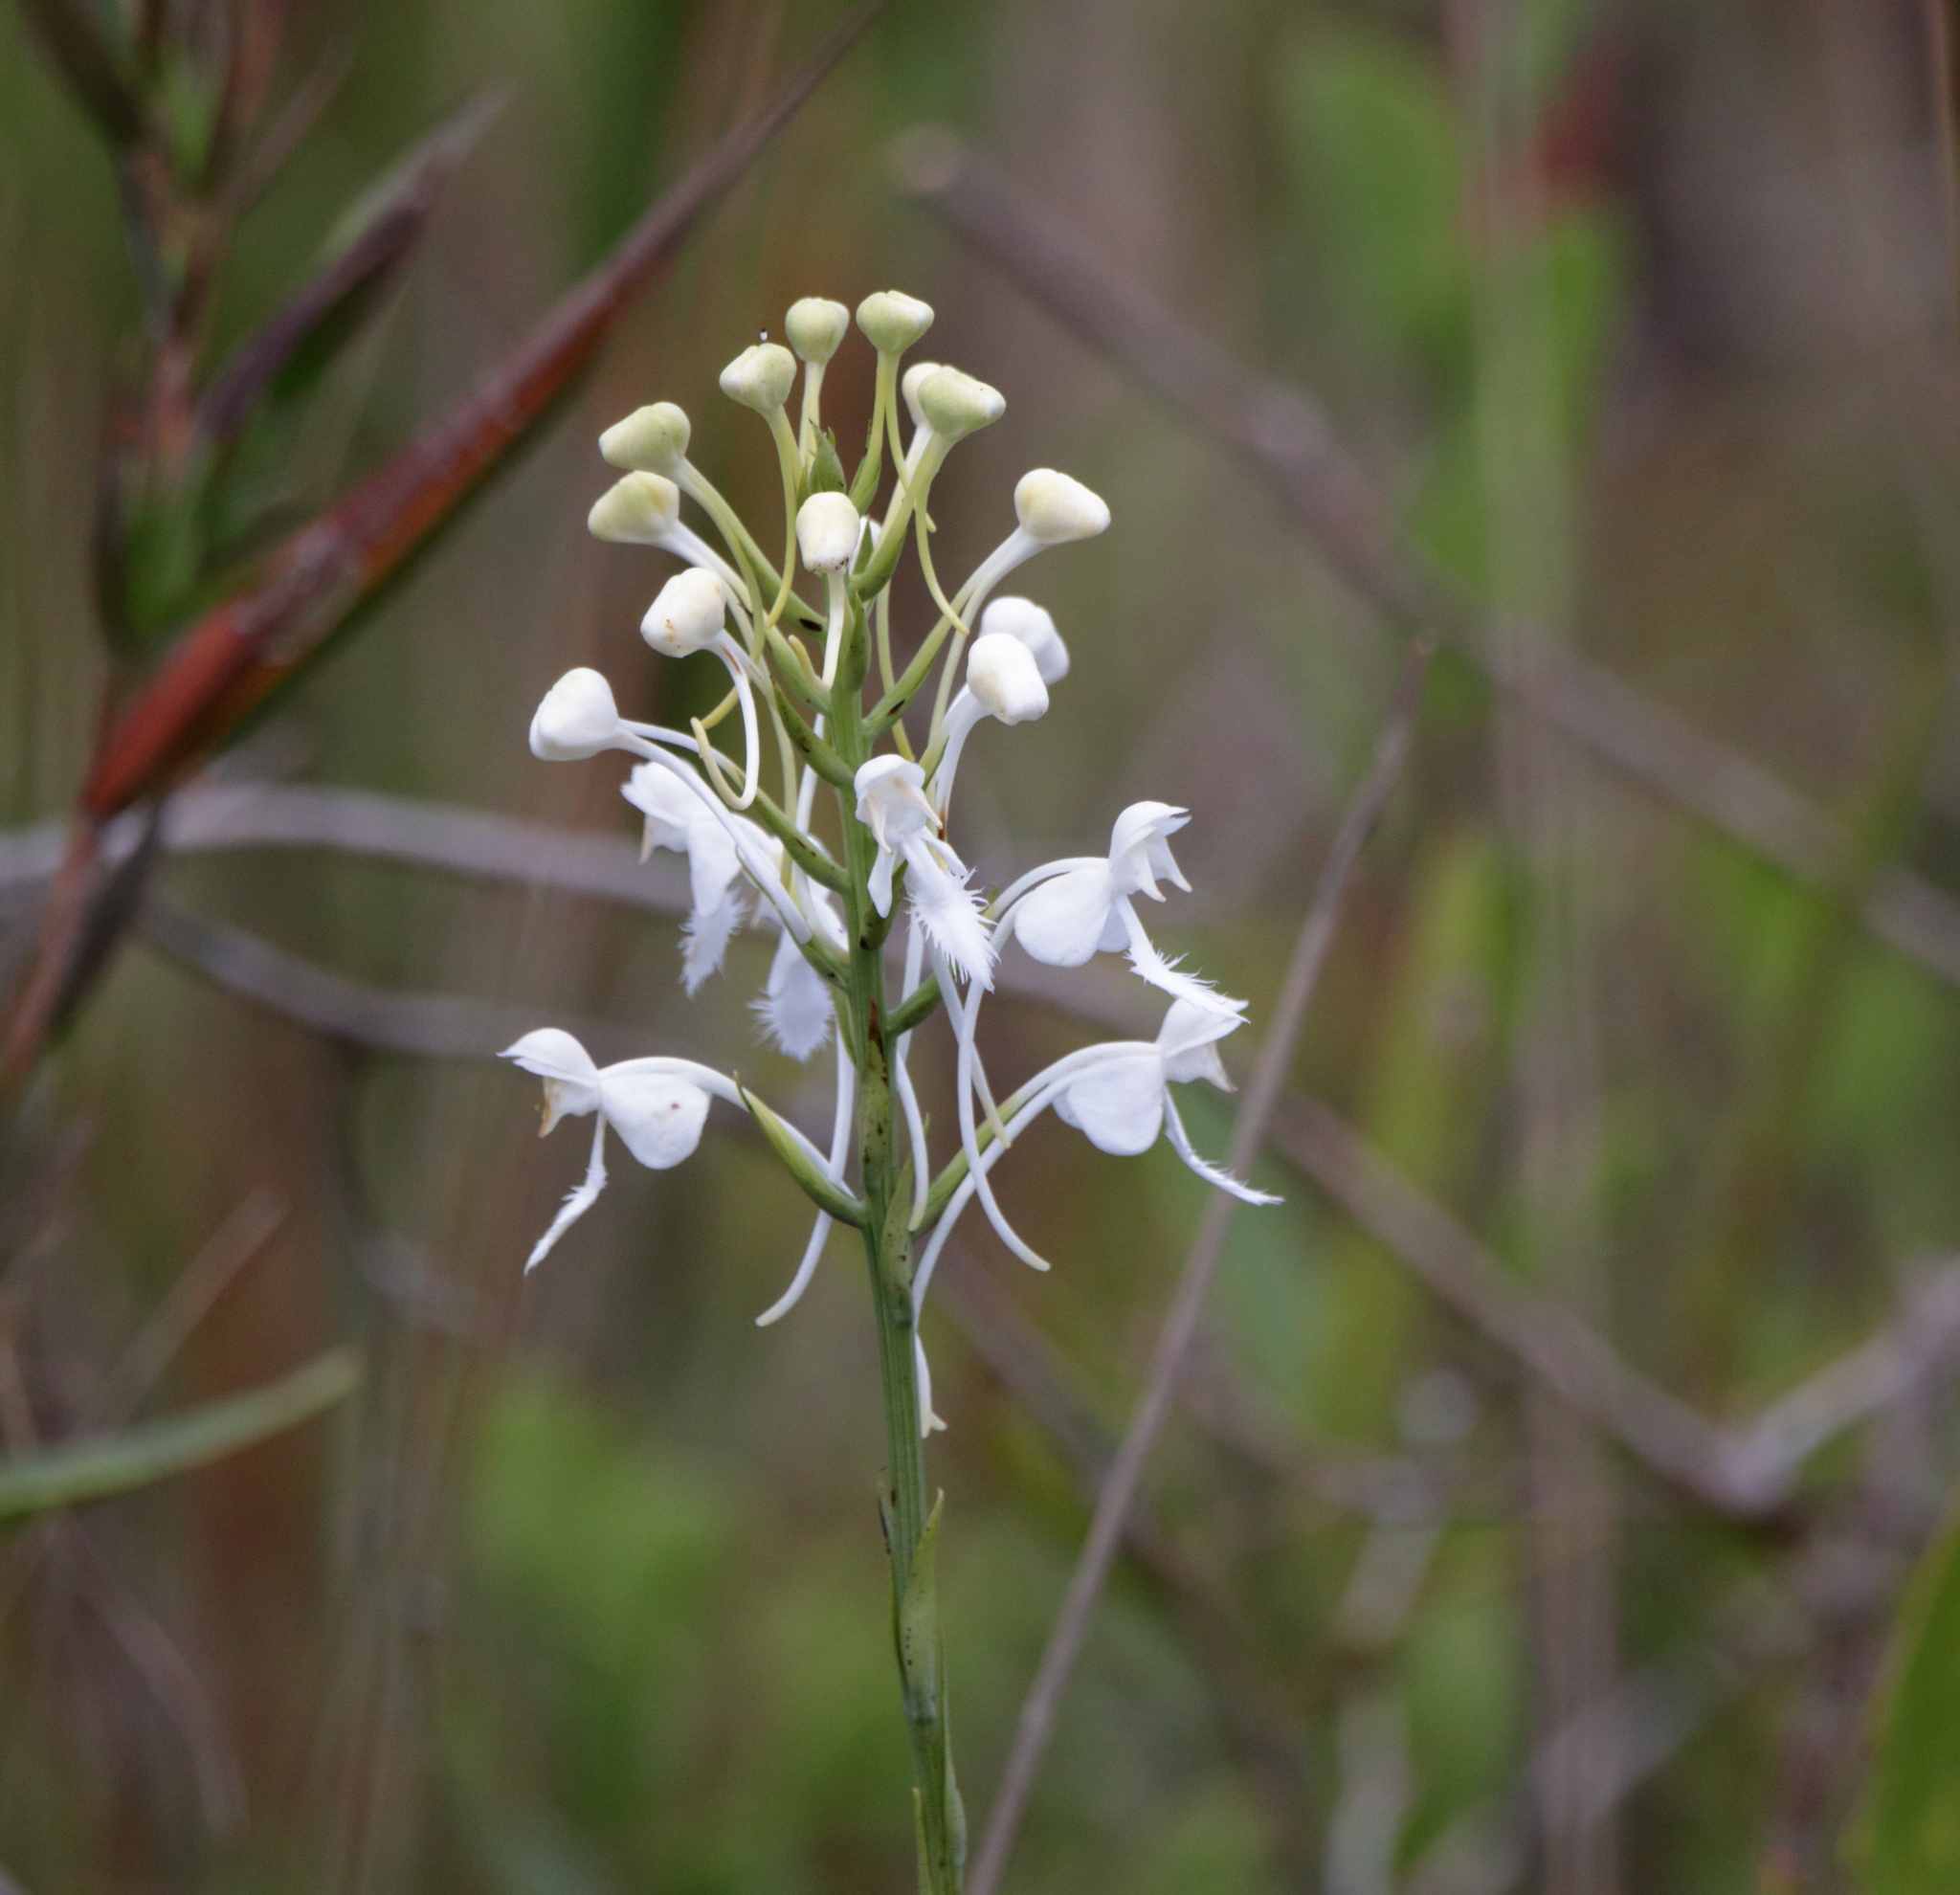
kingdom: Plantae
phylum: Tracheophyta
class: Liliopsida
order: Asparagales
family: Orchidaceae
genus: Platanthera
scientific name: Platanthera blephariglottis
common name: White fringed orchid
